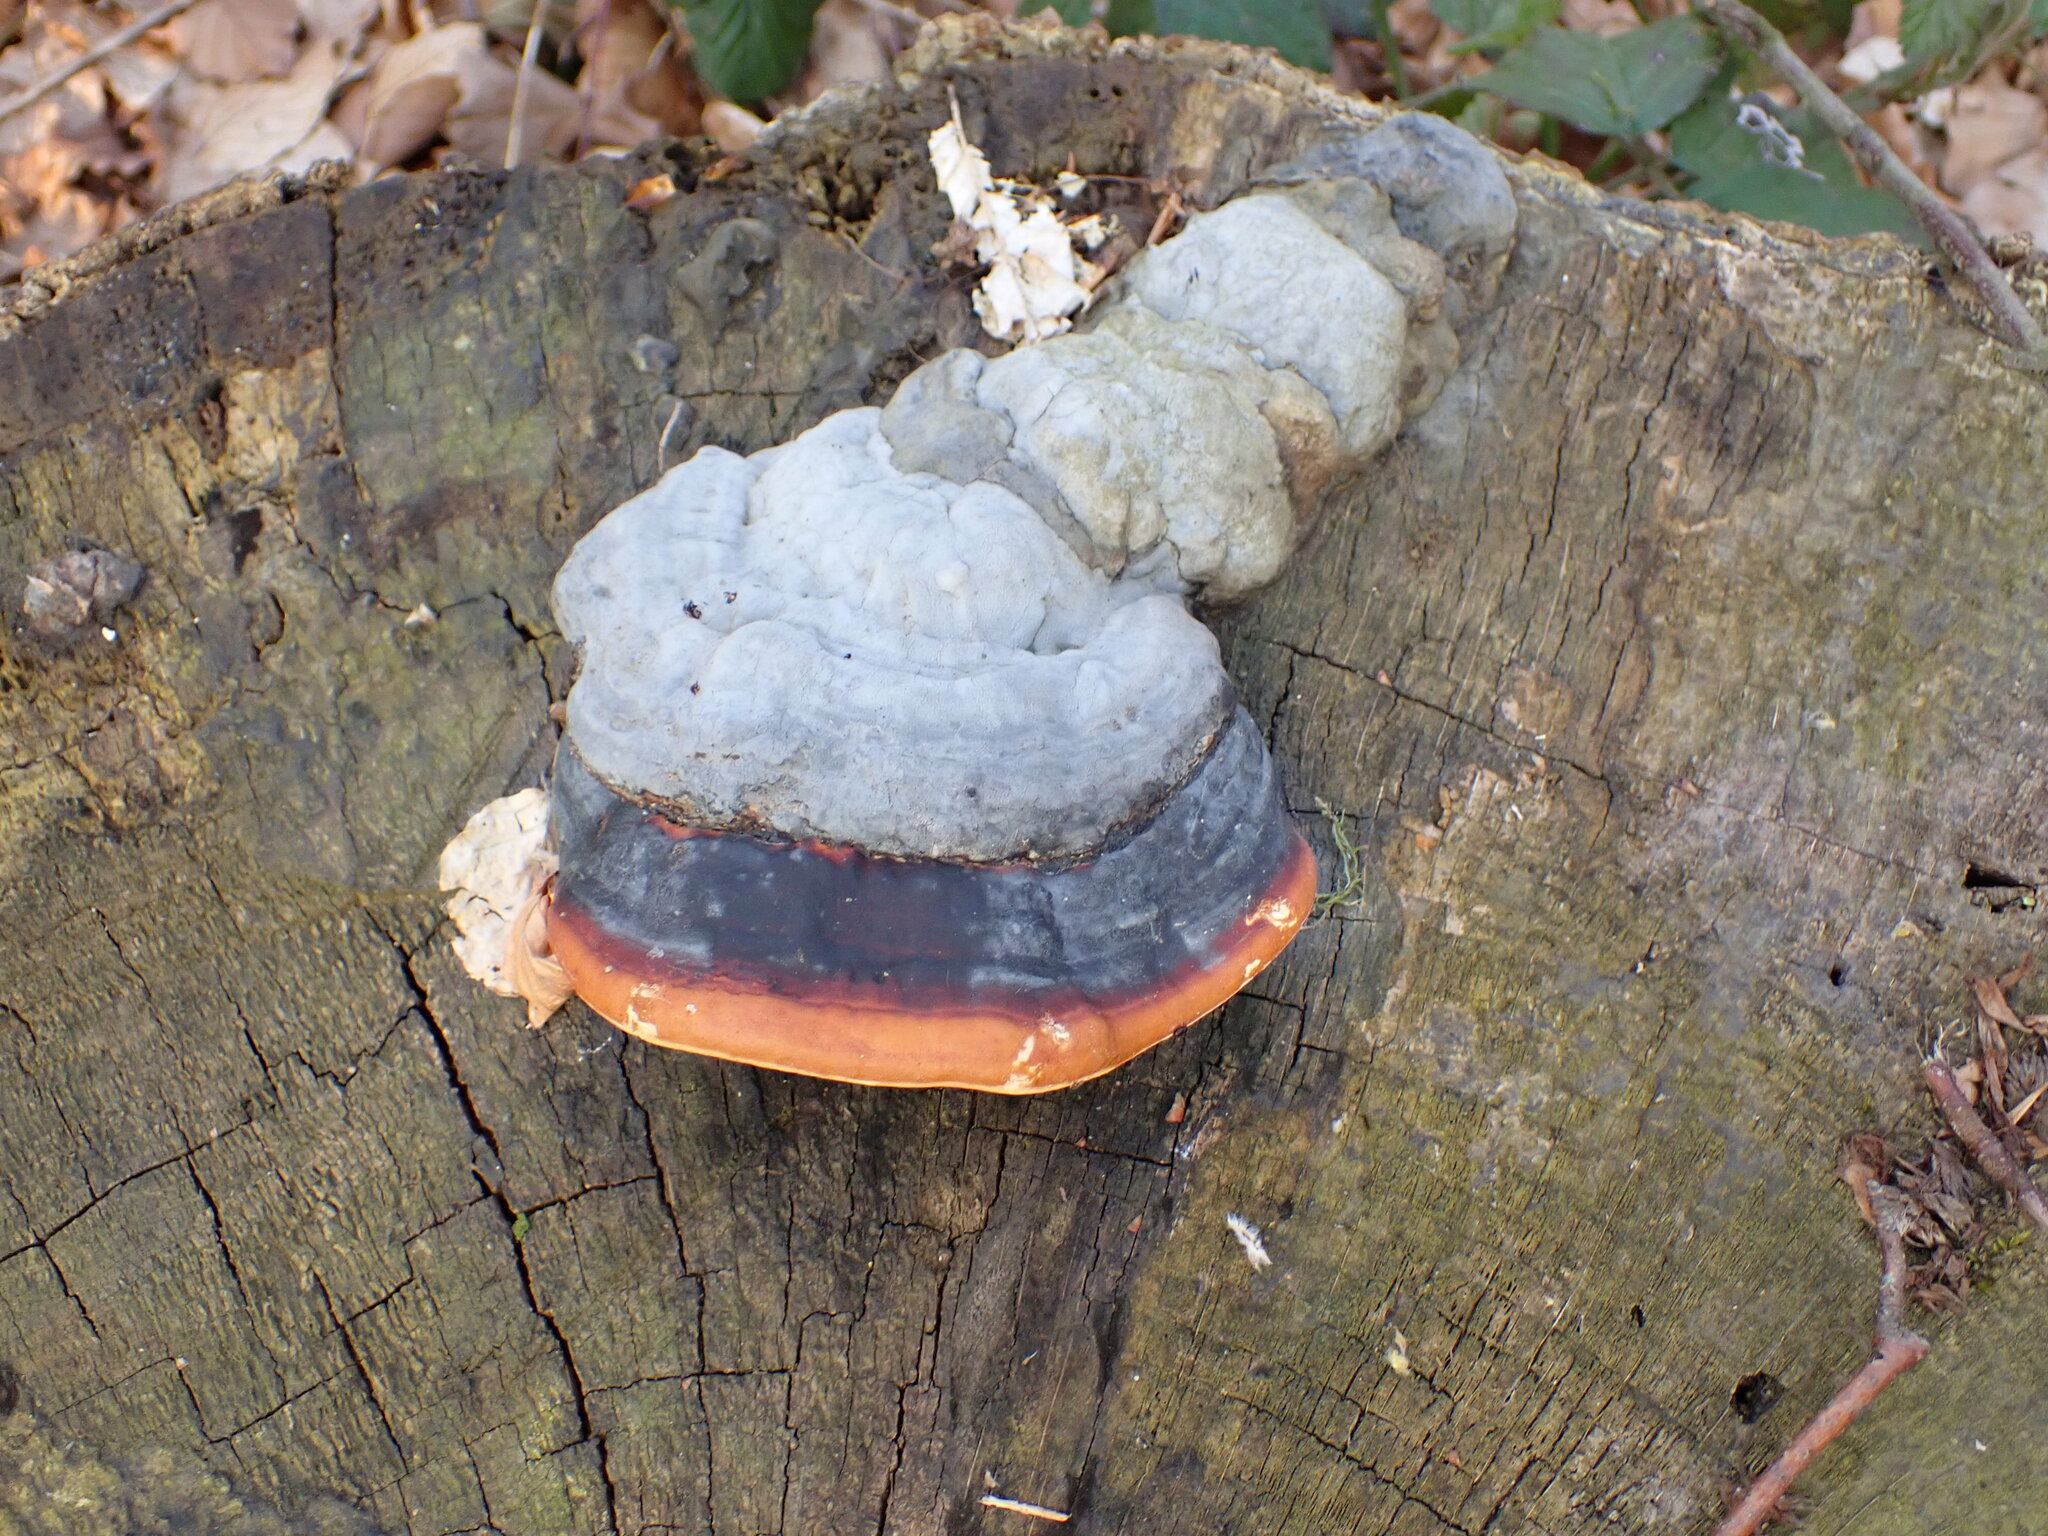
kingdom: Fungi
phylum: Basidiomycota
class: Agaricomycetes
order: Polyporales
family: Fomitopsidaceae
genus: Fomitopsis
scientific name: Fomitopsis pinicola
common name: Red-belted bracket
